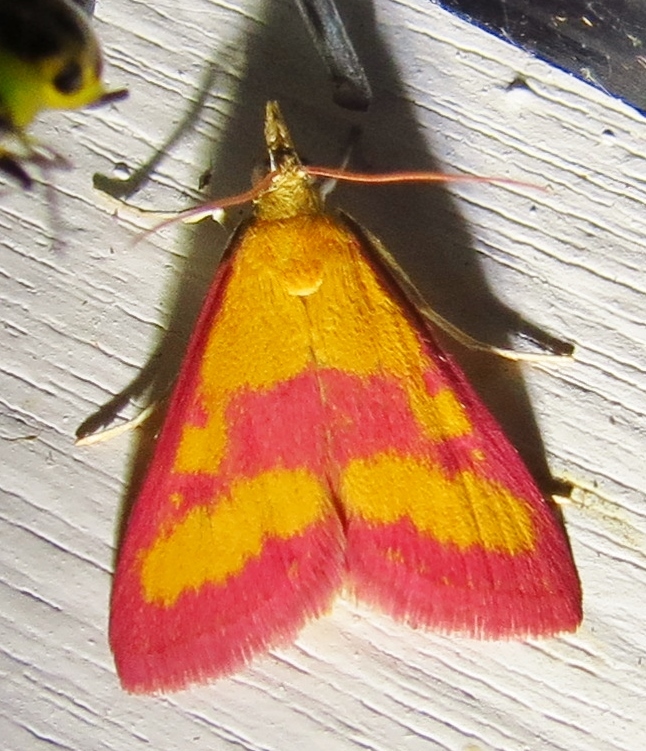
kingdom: Animalia
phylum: Arthropoda
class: Insecta
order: Lepidoptera
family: Crambidae
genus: Pyrausta
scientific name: Pyrausta laticlavia
